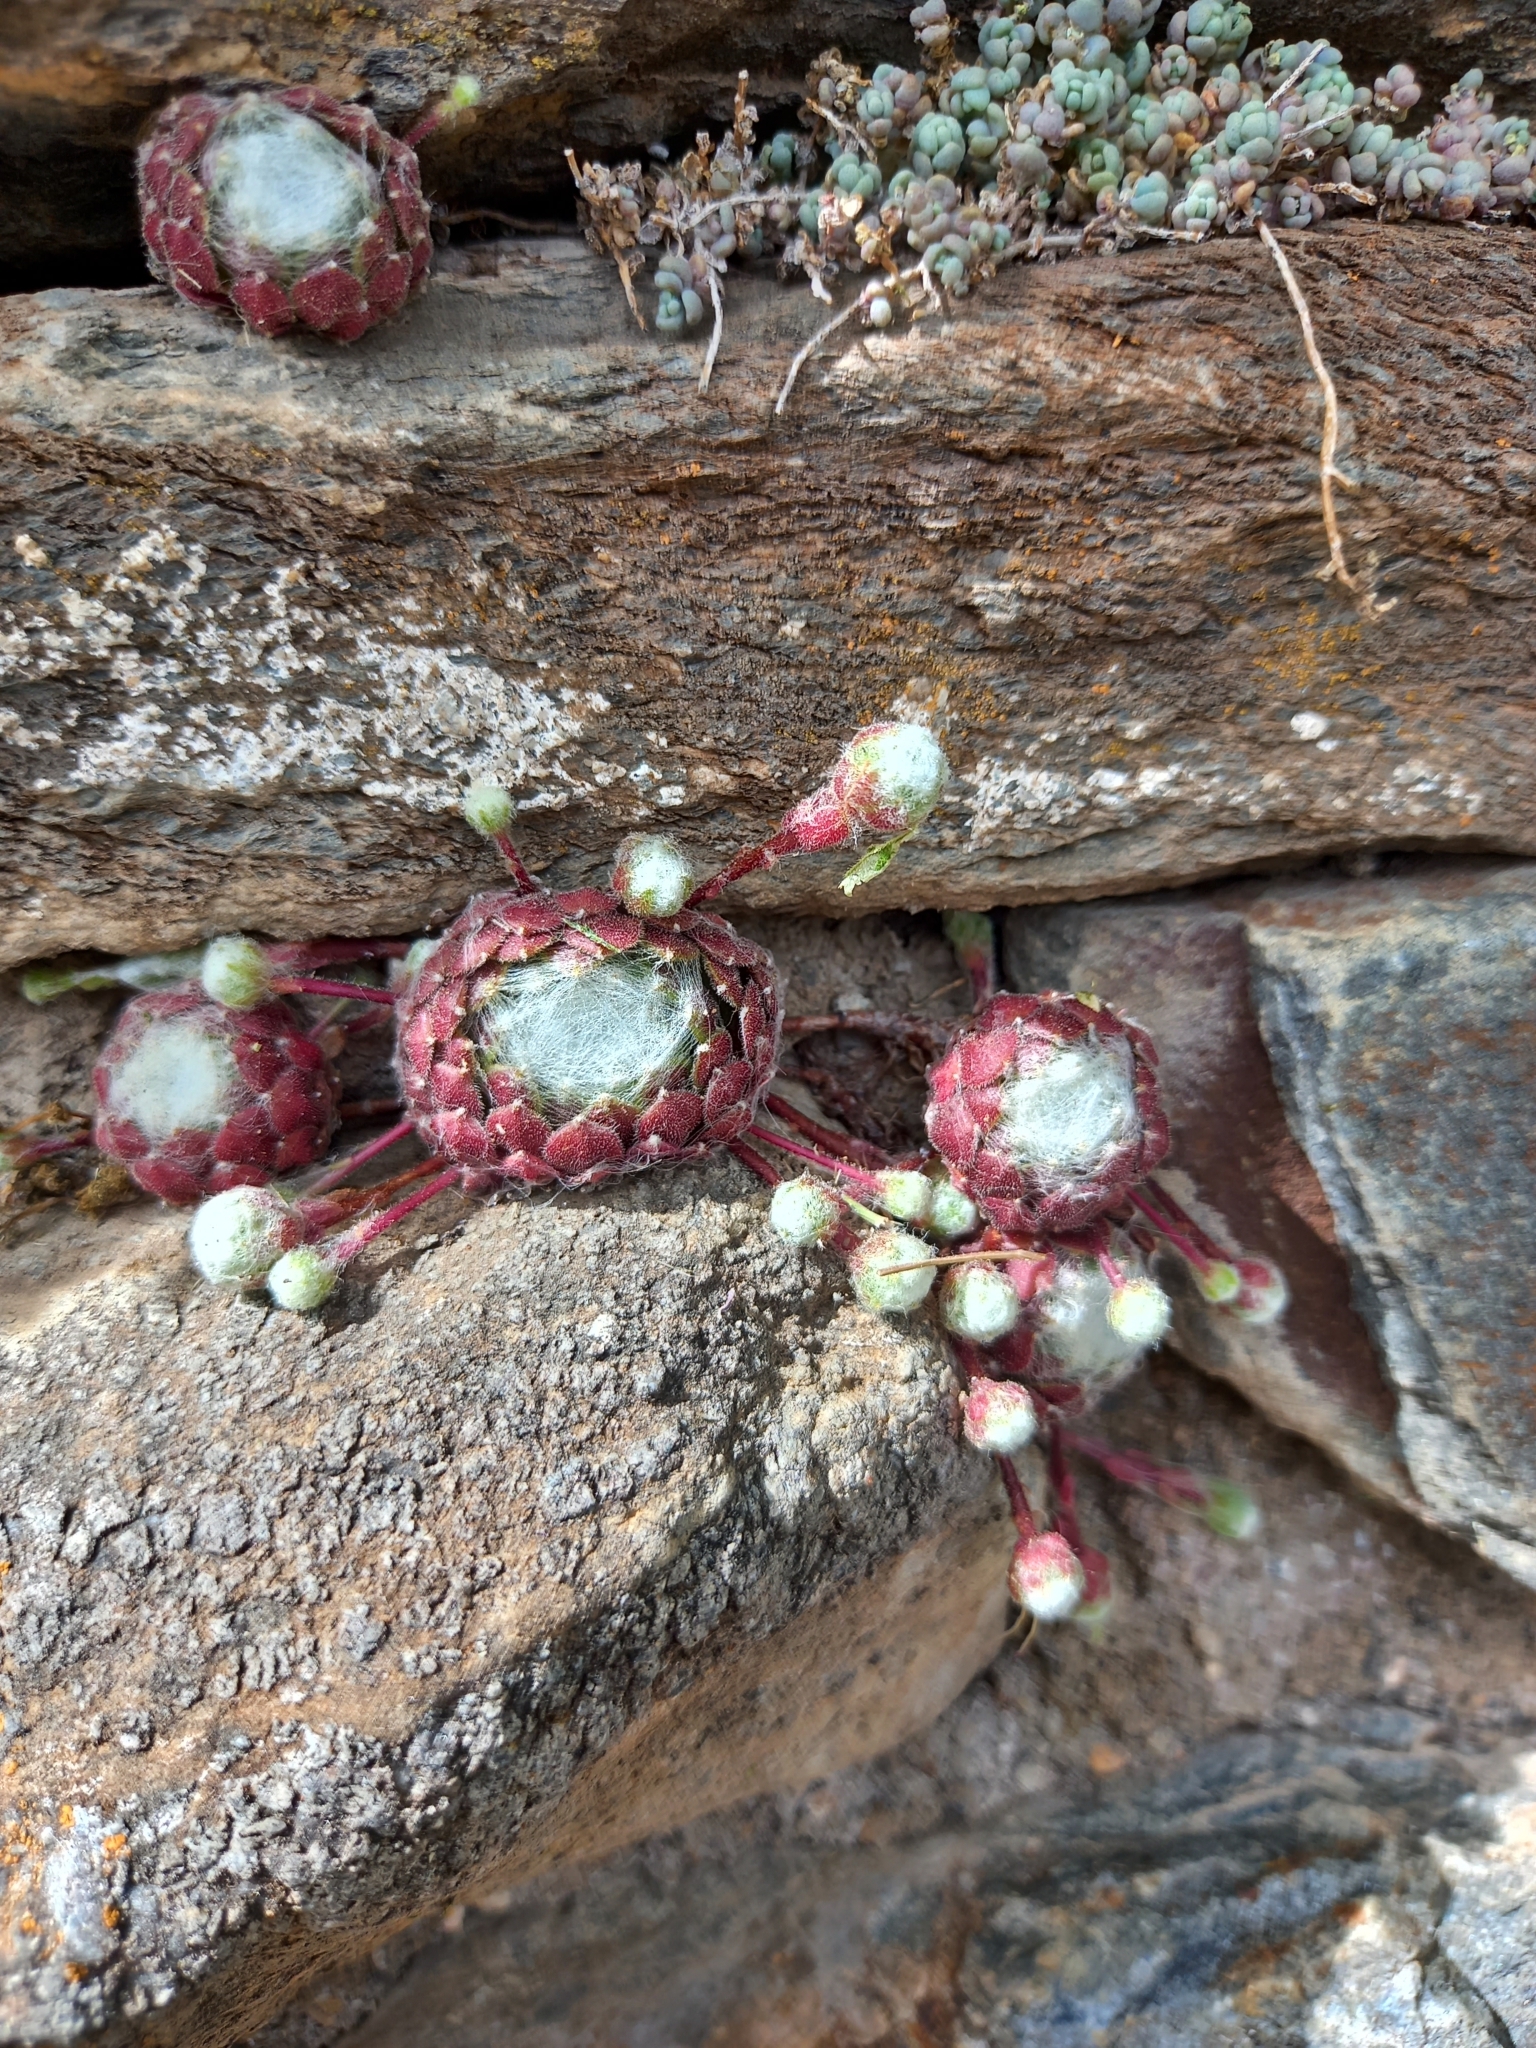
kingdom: Plantae
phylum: Tracheophyta
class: Magnoliopsida
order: Saxifragales
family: Crassulaceae
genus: Sempervivum
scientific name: Sempervivum arachnoideum
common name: Cobweb house-leek
